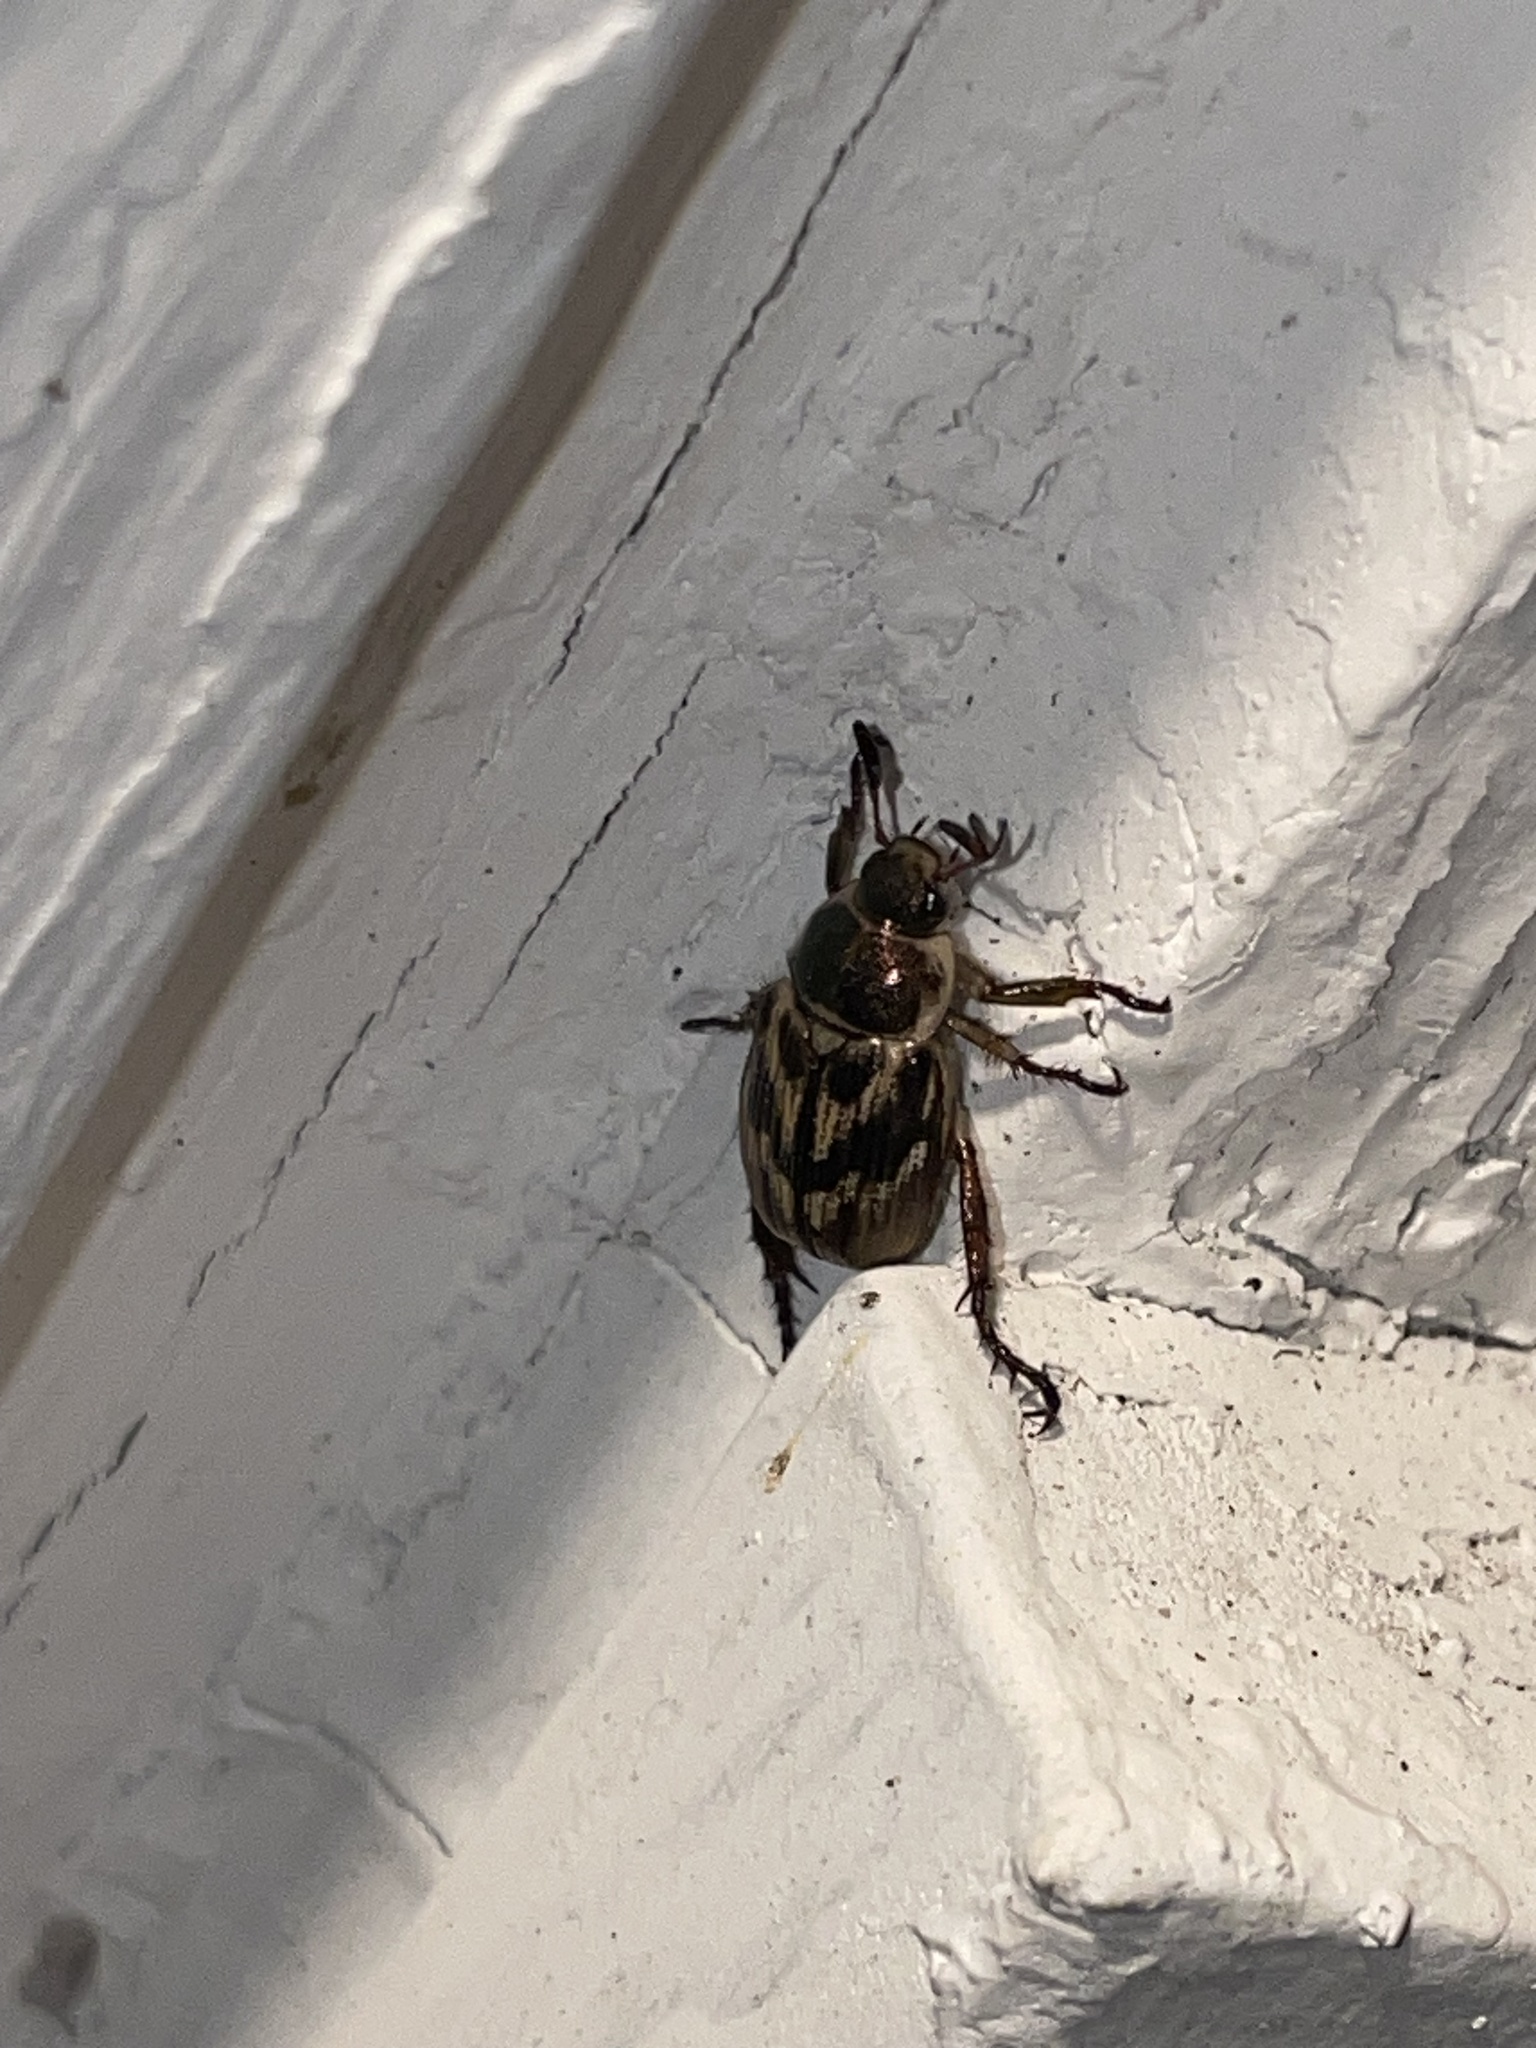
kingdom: Animalia
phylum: Arthropoda
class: Insecta
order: Coleoptera
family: Scarabaeidae
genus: Exomala
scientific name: Exomala orientalis
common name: Oriental beetle
